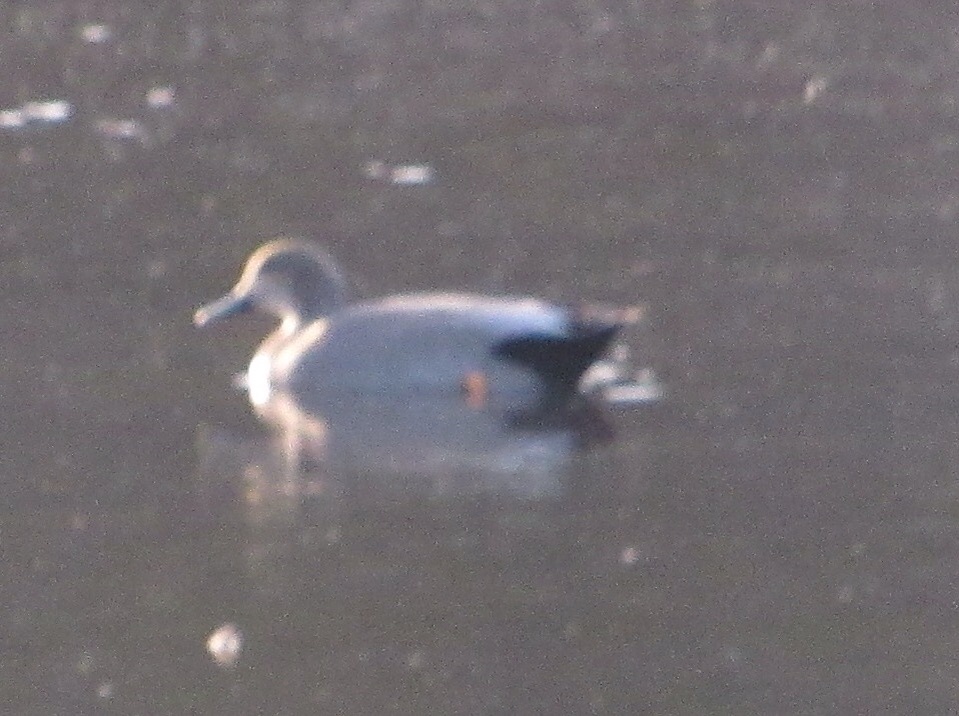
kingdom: Animalia
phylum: Chordata
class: Aves
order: Anseriformes
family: Anatidae
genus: Mareca
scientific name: Mareca strepera
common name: Gadwall
